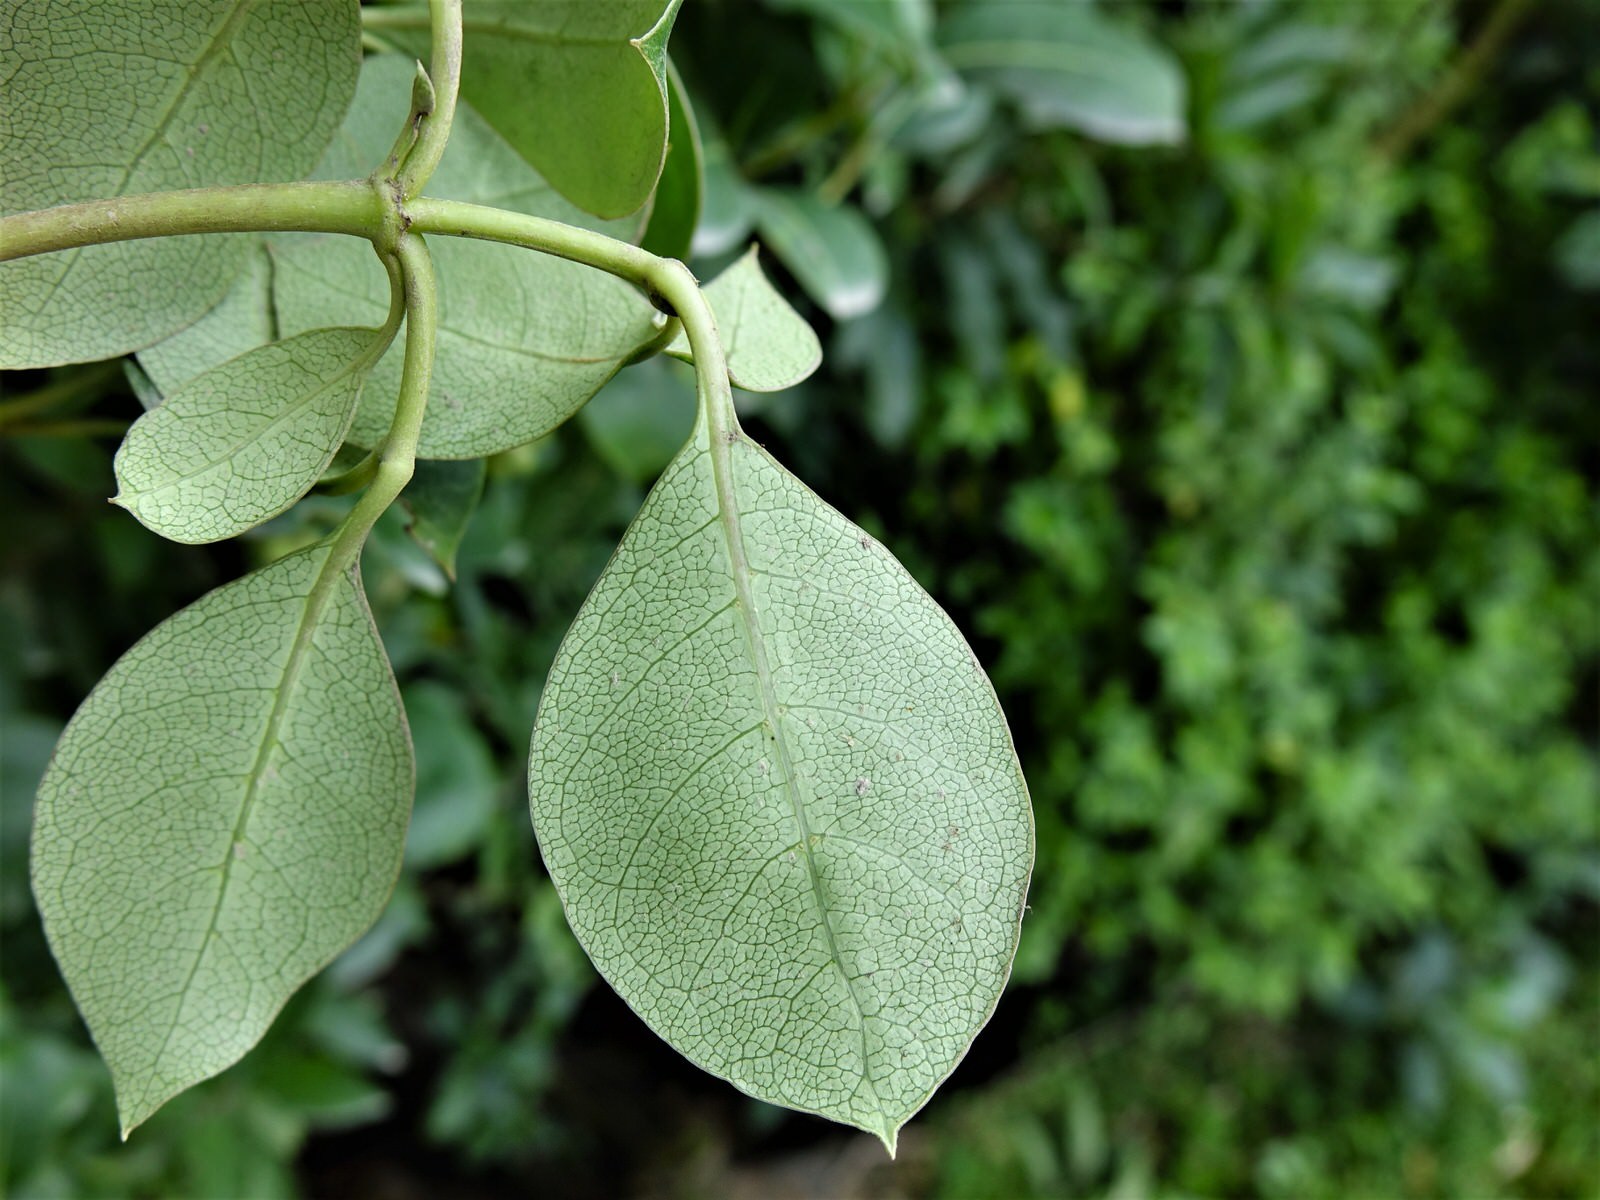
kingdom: Plantae
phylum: Tracheophyta
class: Magnoliopsida
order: Gentianales
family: Rubiaceae
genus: Coprosma
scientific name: Coprosma lucida
